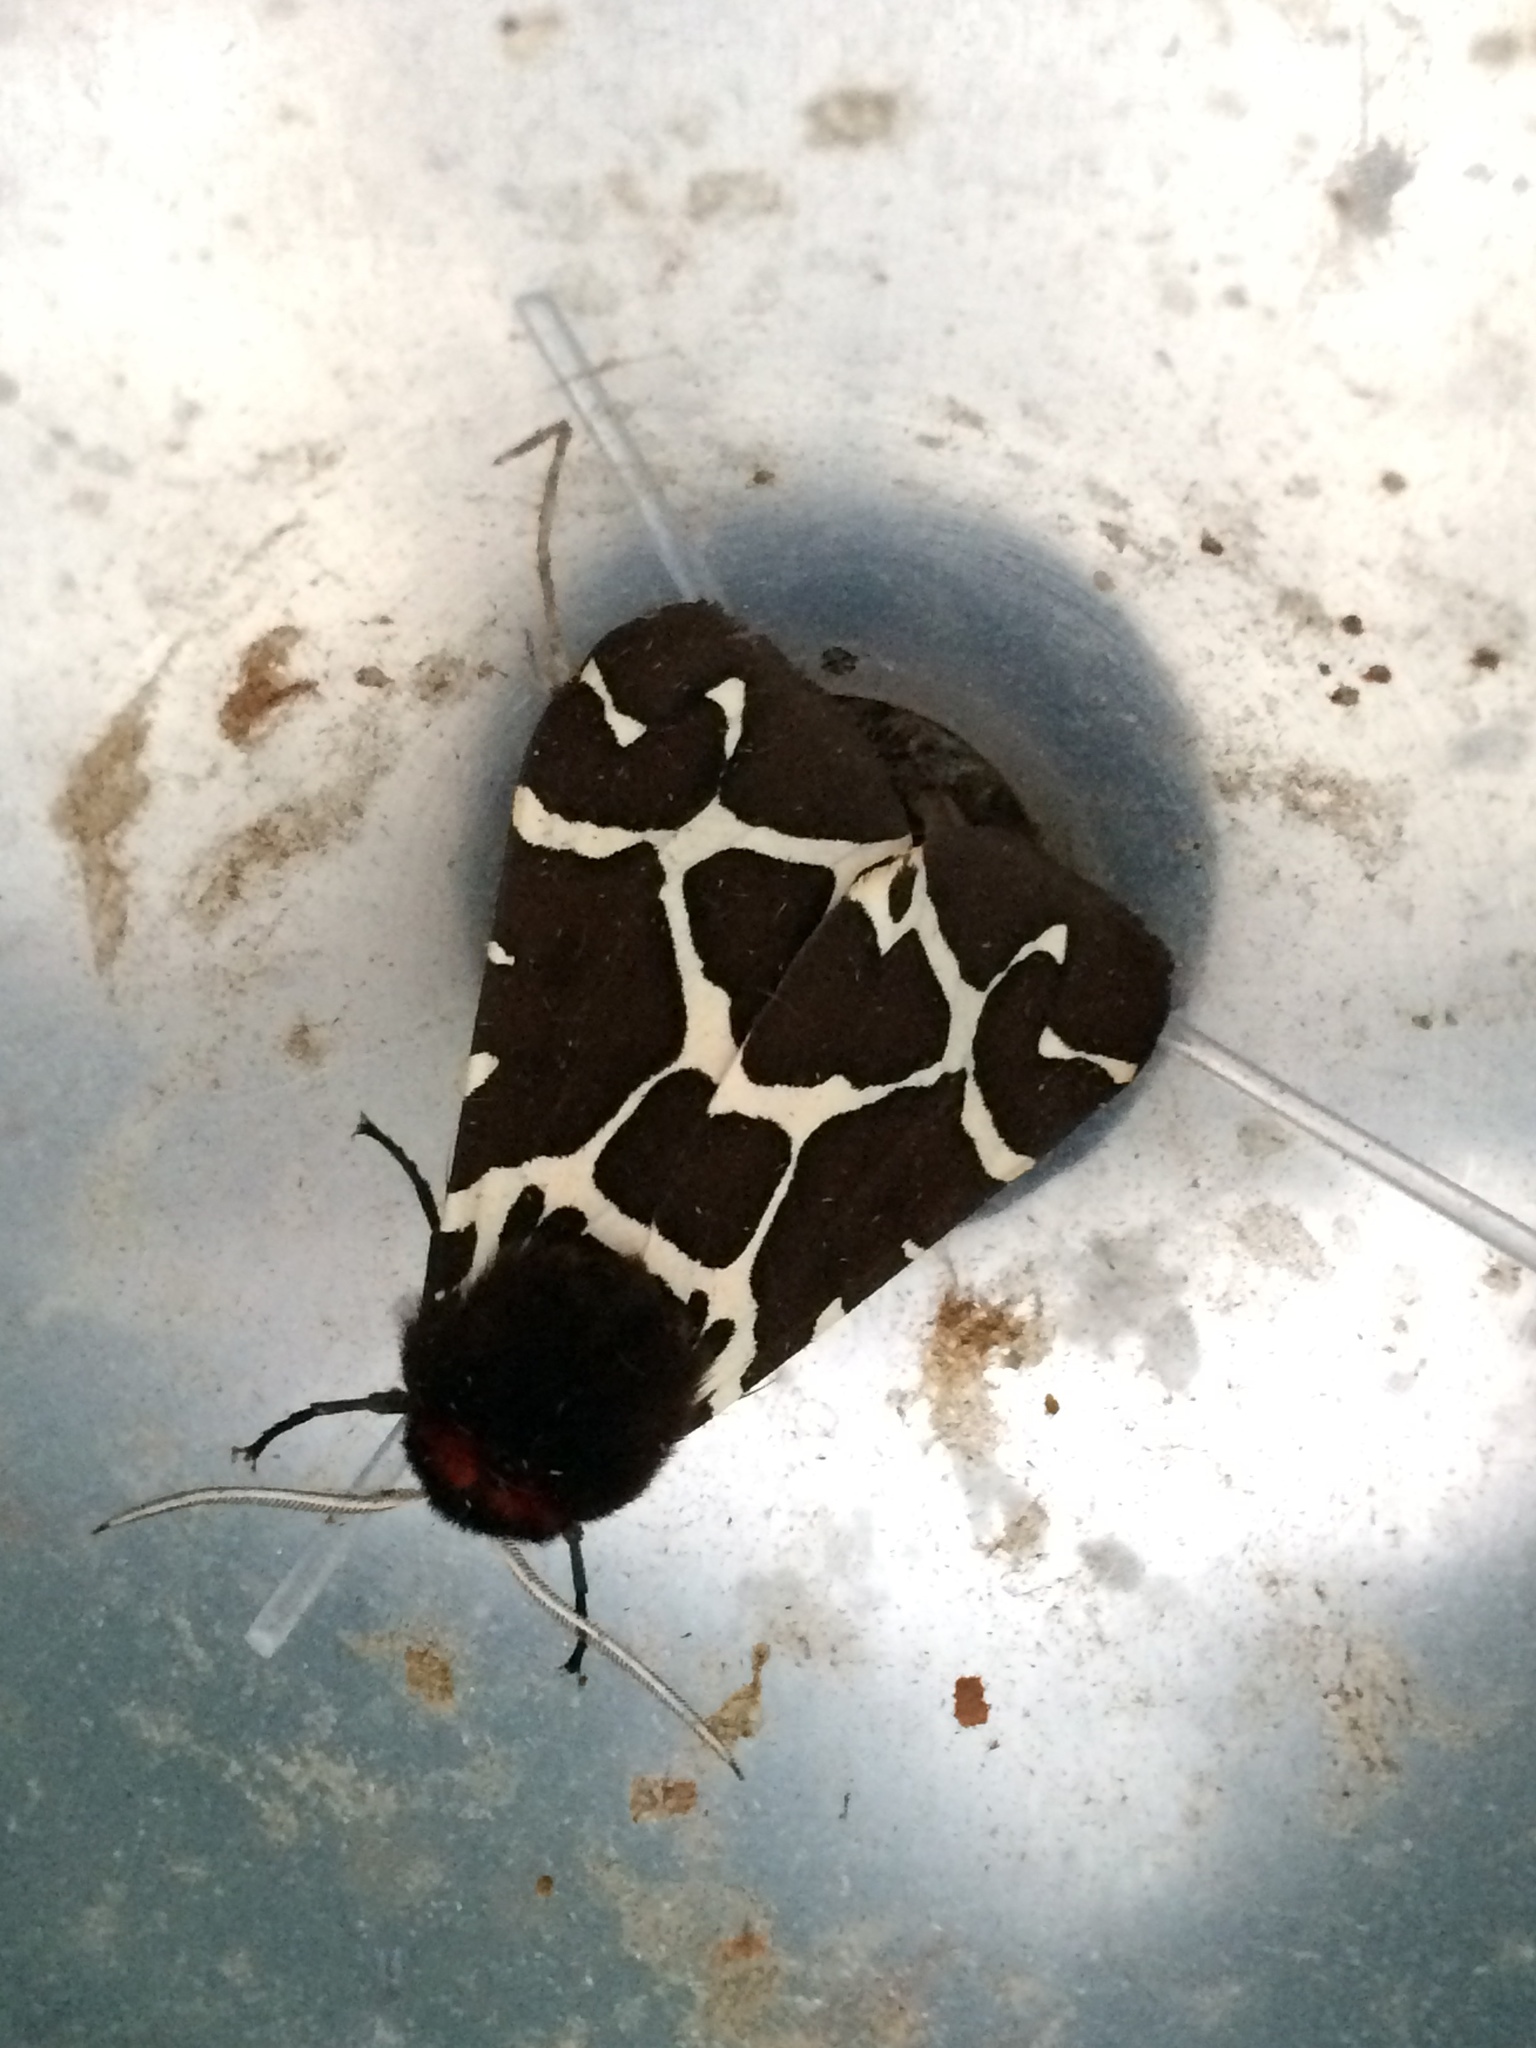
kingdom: Animalia
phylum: Arthropoda
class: Insecta
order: Lepidoptera
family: Erebidae
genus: Arctia
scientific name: Arctia caja
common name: Garden tiger
